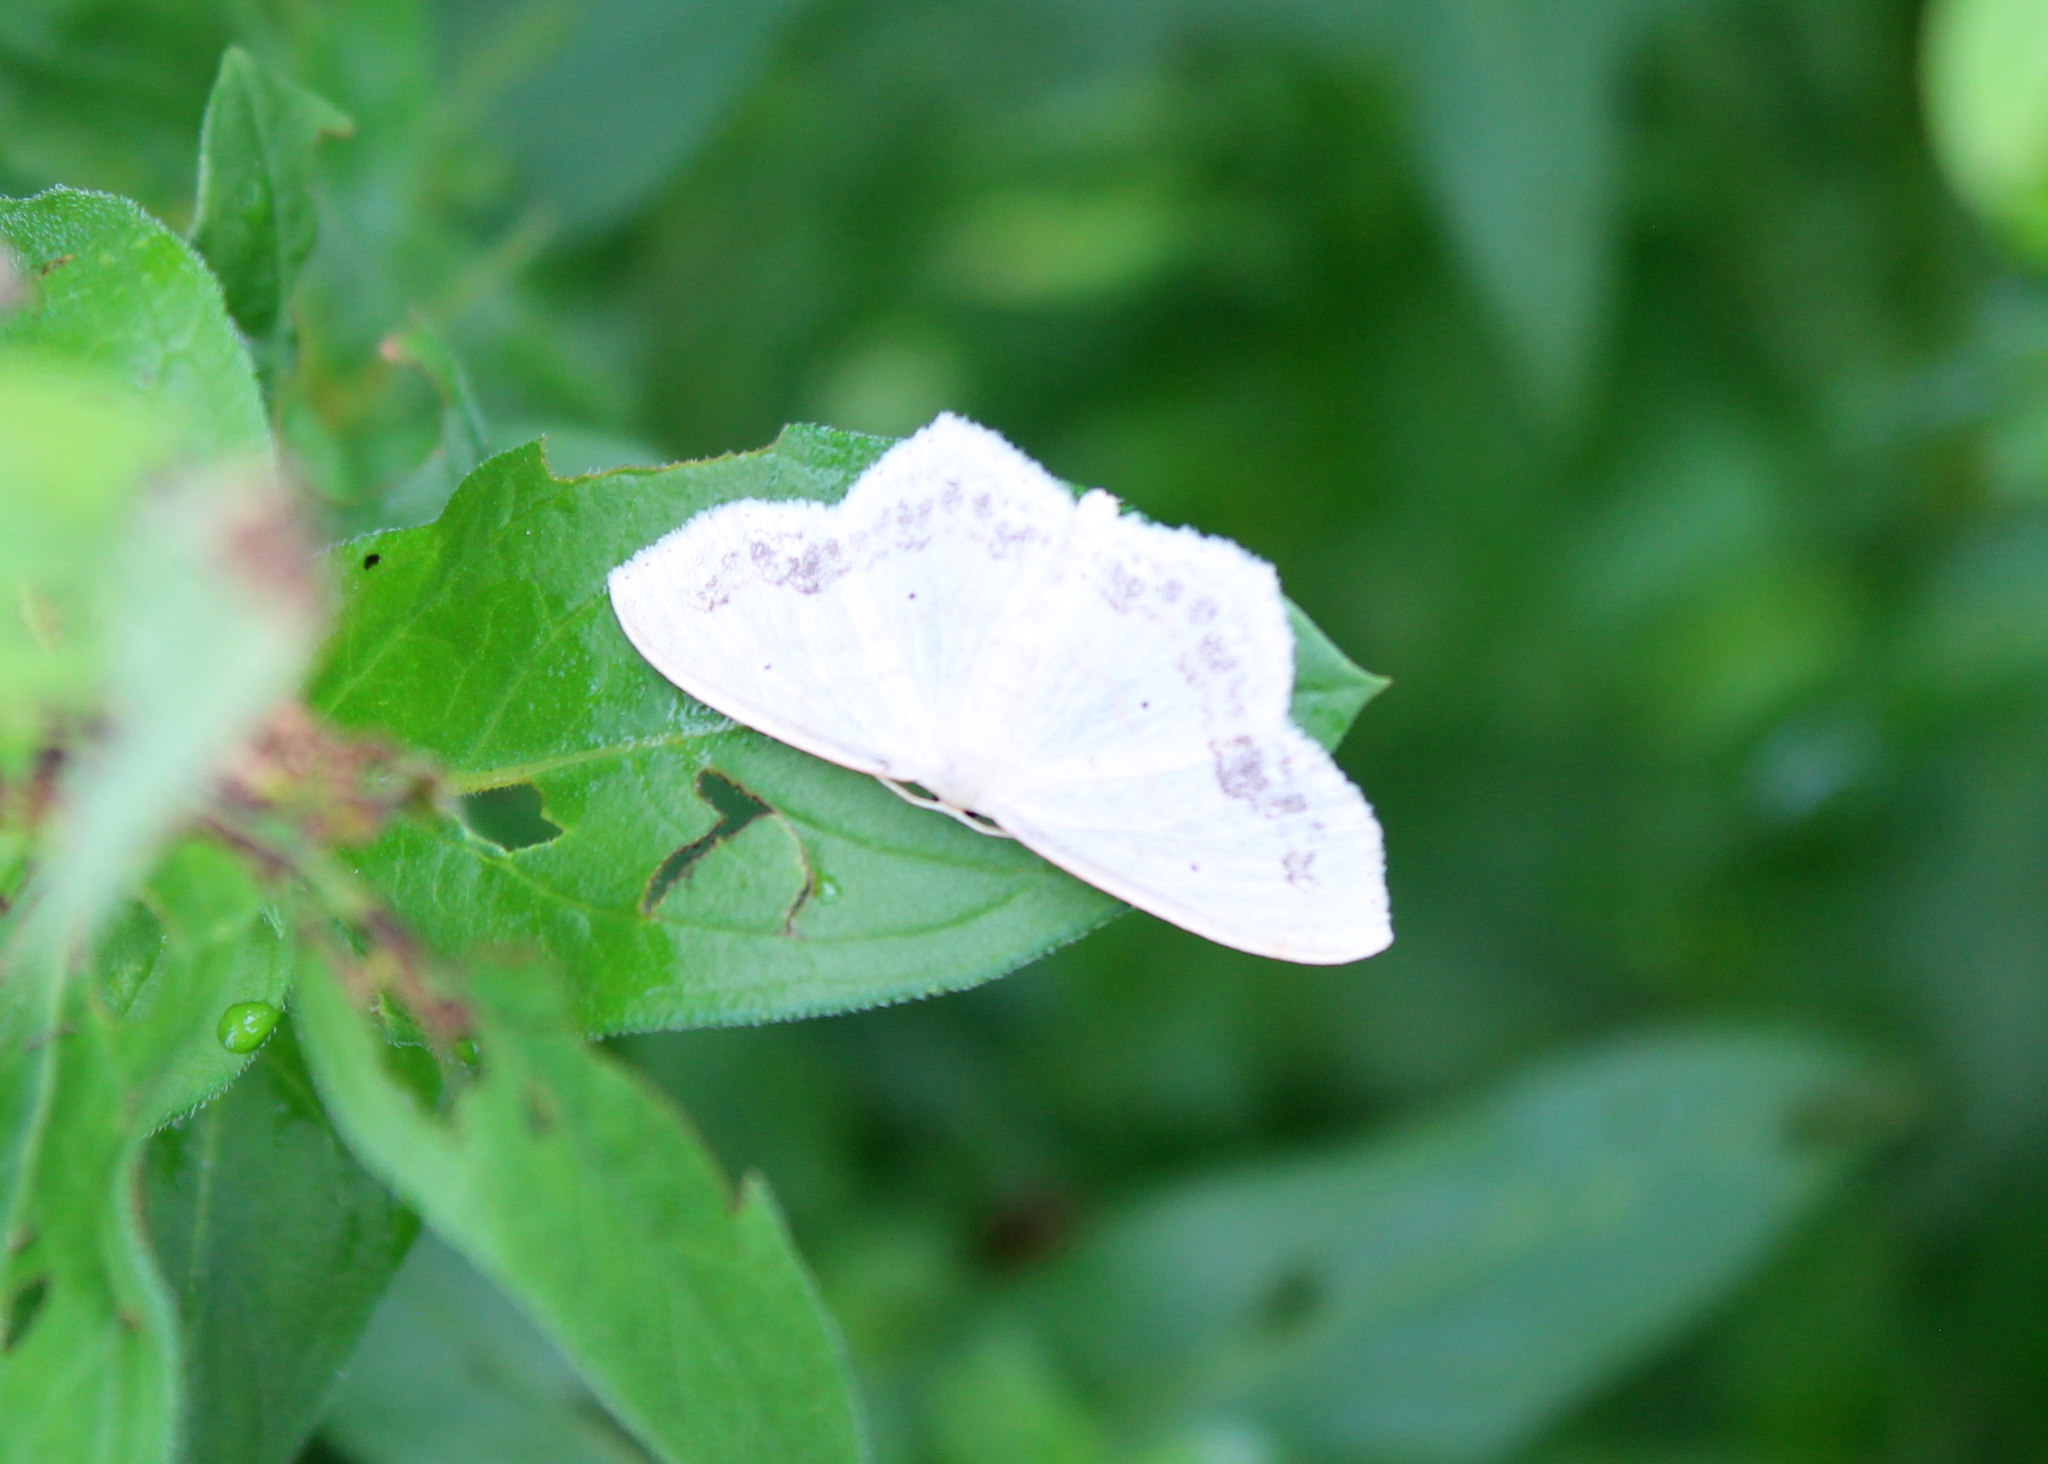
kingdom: Animalia
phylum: Arthropoda
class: Insecta
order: Lepidoptera
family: Geometridae
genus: Scopula
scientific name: Scopula limboundata
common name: Large lace border
